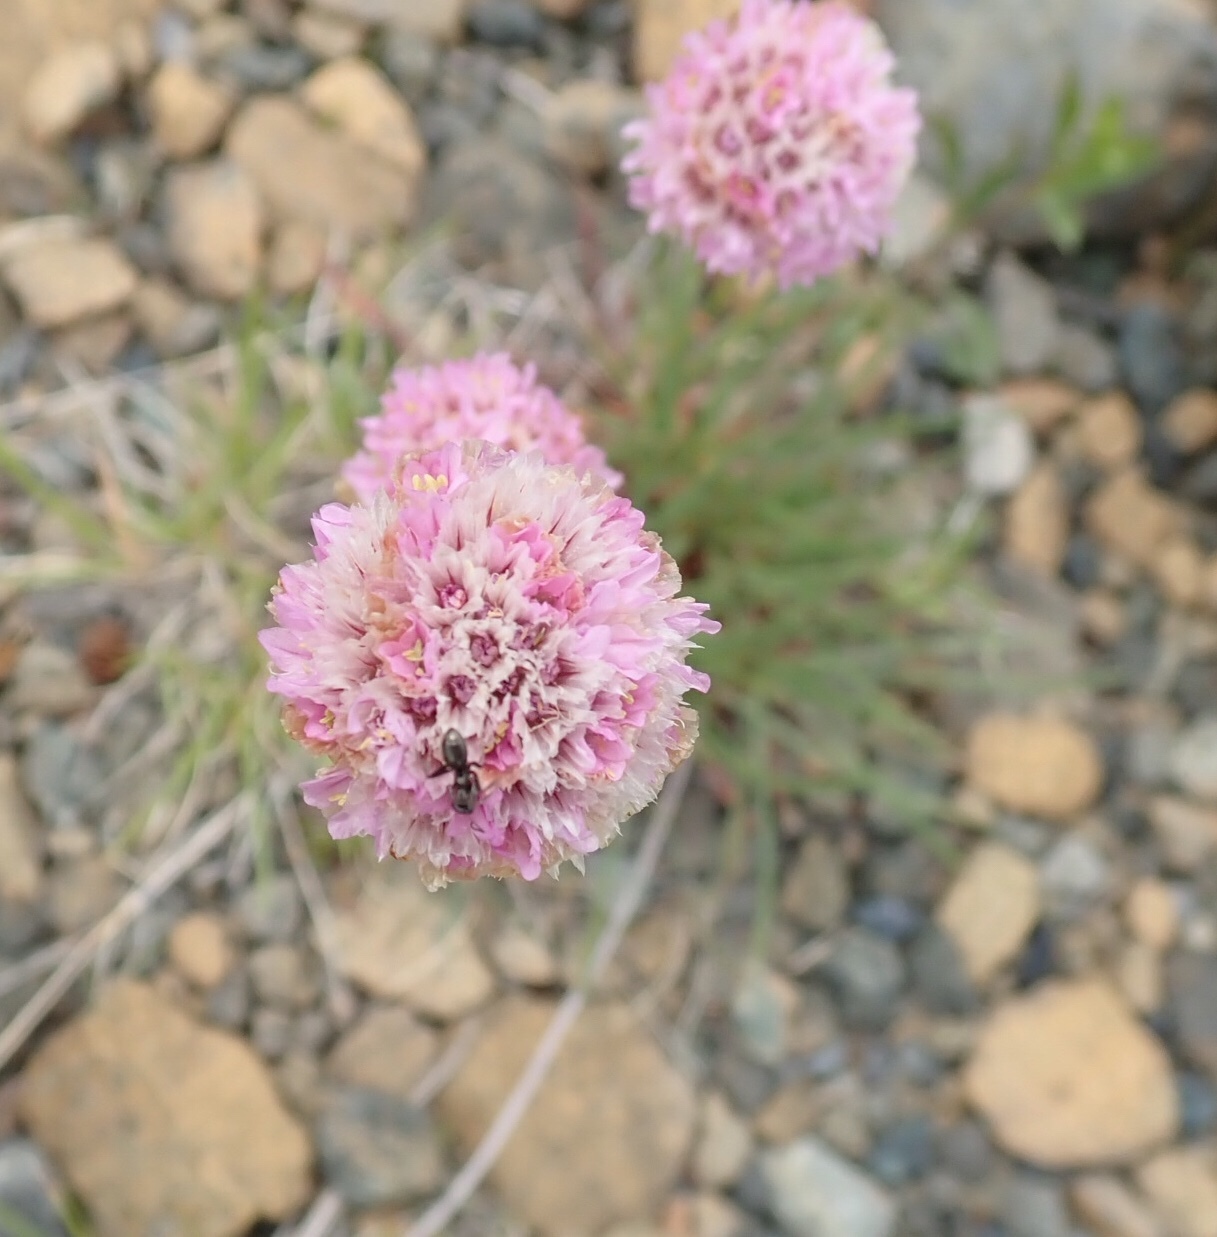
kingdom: Plantae
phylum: Tracheophyta
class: Magnoliopsida
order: Caryophyllales
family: Plumbaginaceae
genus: Armeria
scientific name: Armeria maritima
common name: Thrift
